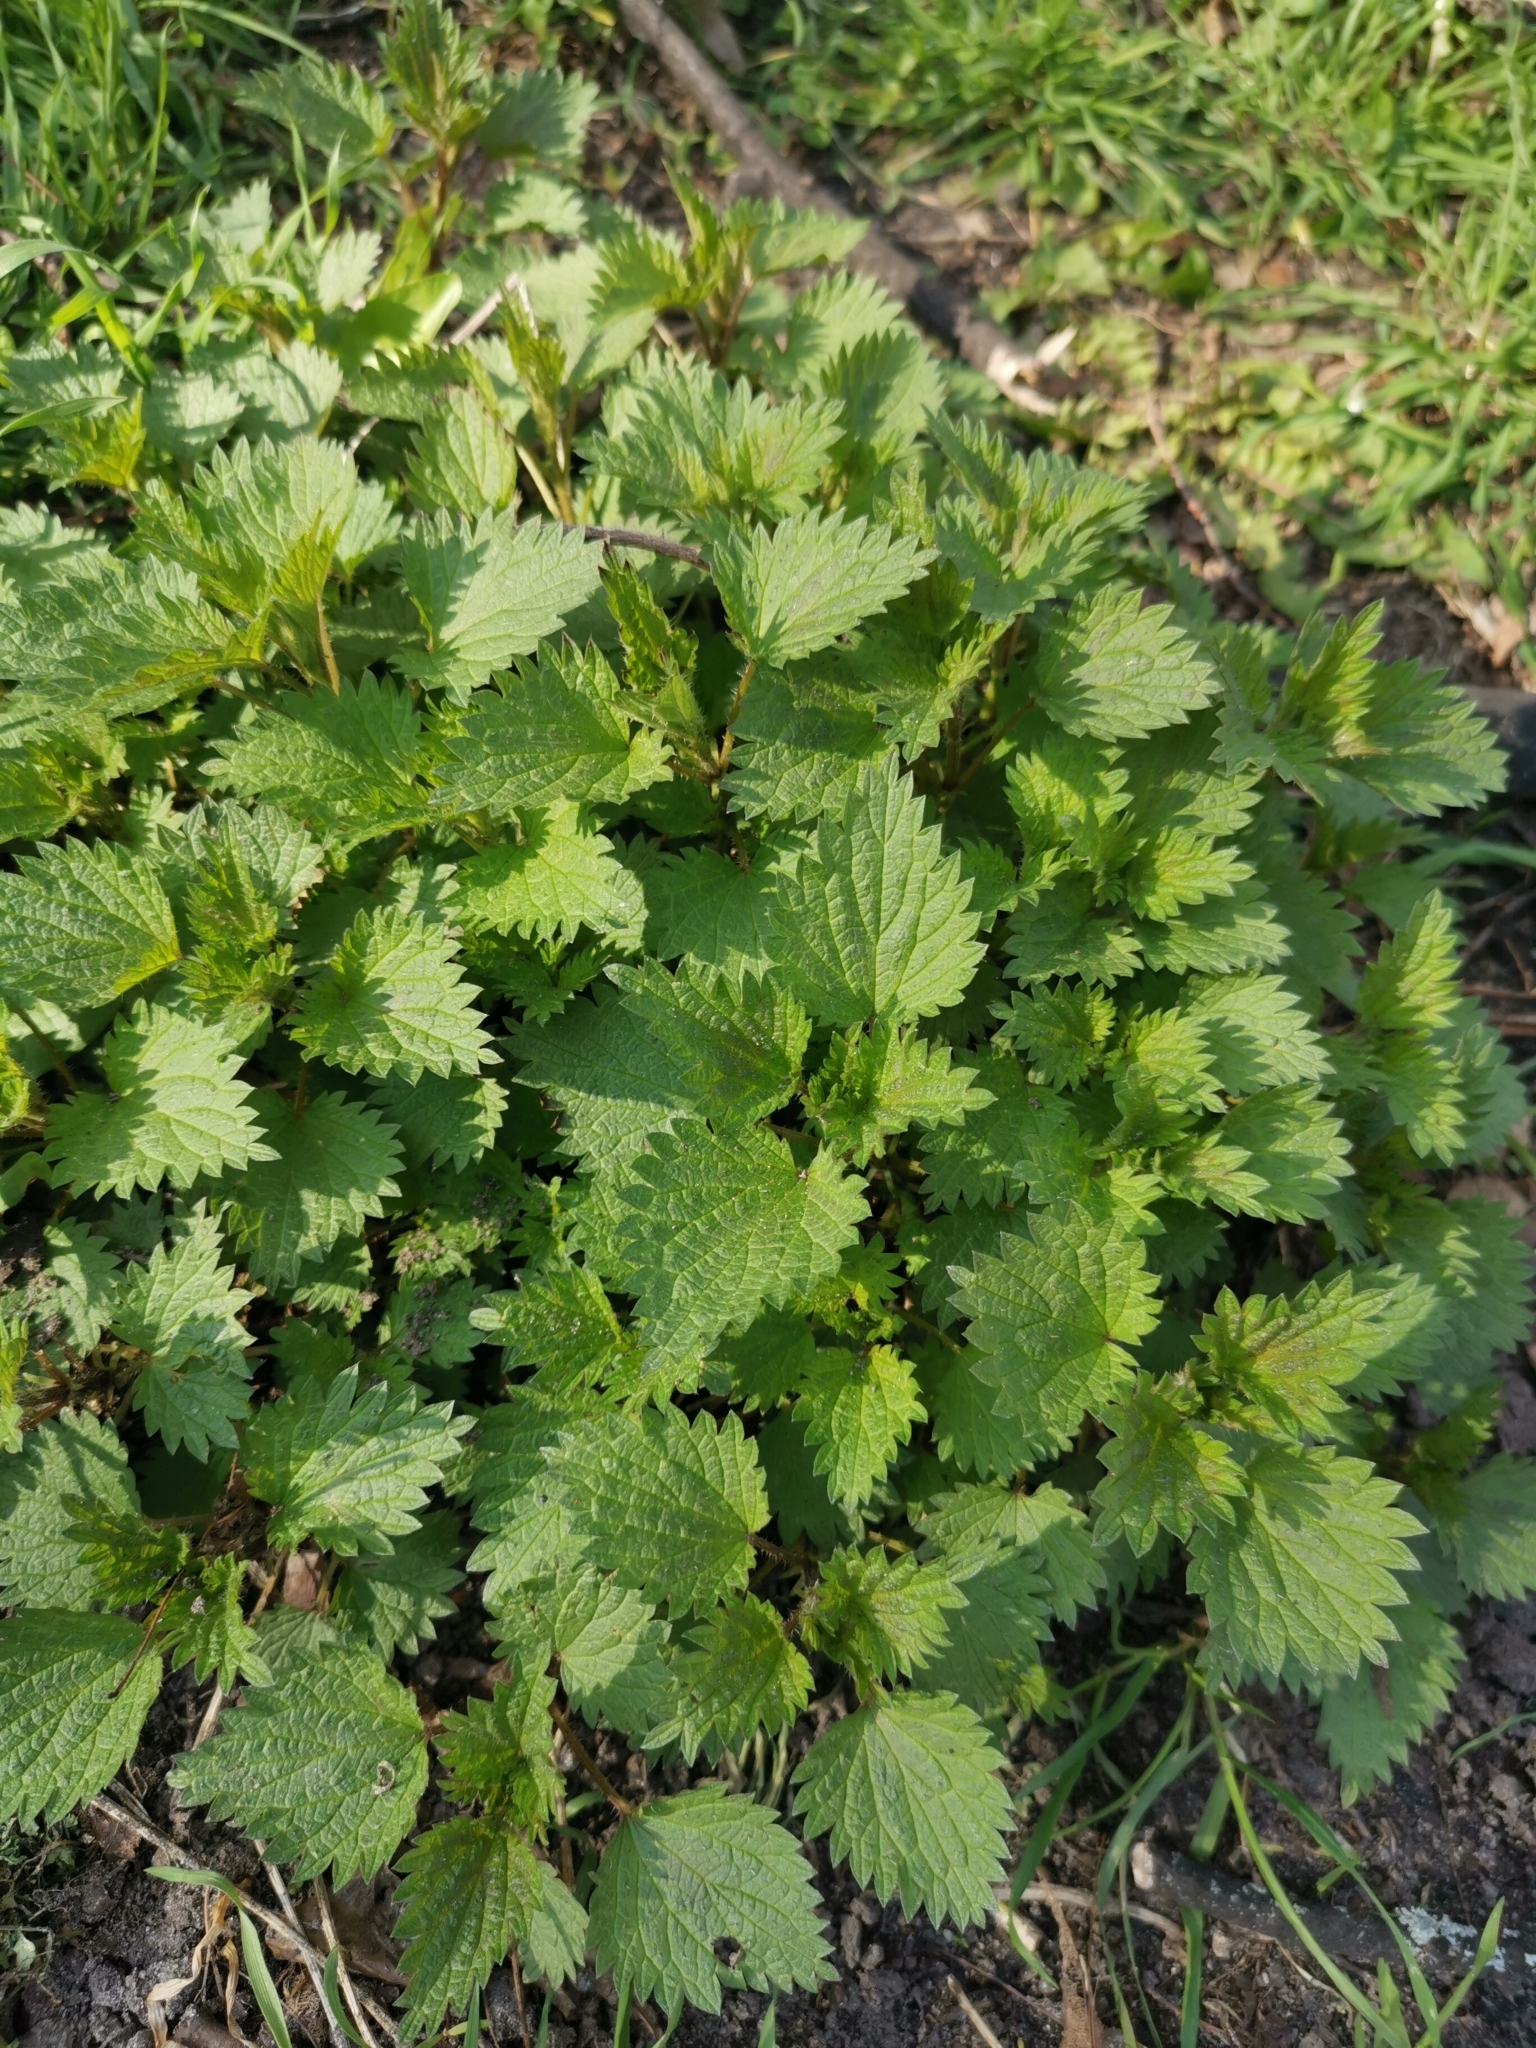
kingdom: Plantae
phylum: Tracheophyta
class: Magnoliopsida
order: Rosales
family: Urticaceae
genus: Urtica
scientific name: Urtica dioica
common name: Common nettle
